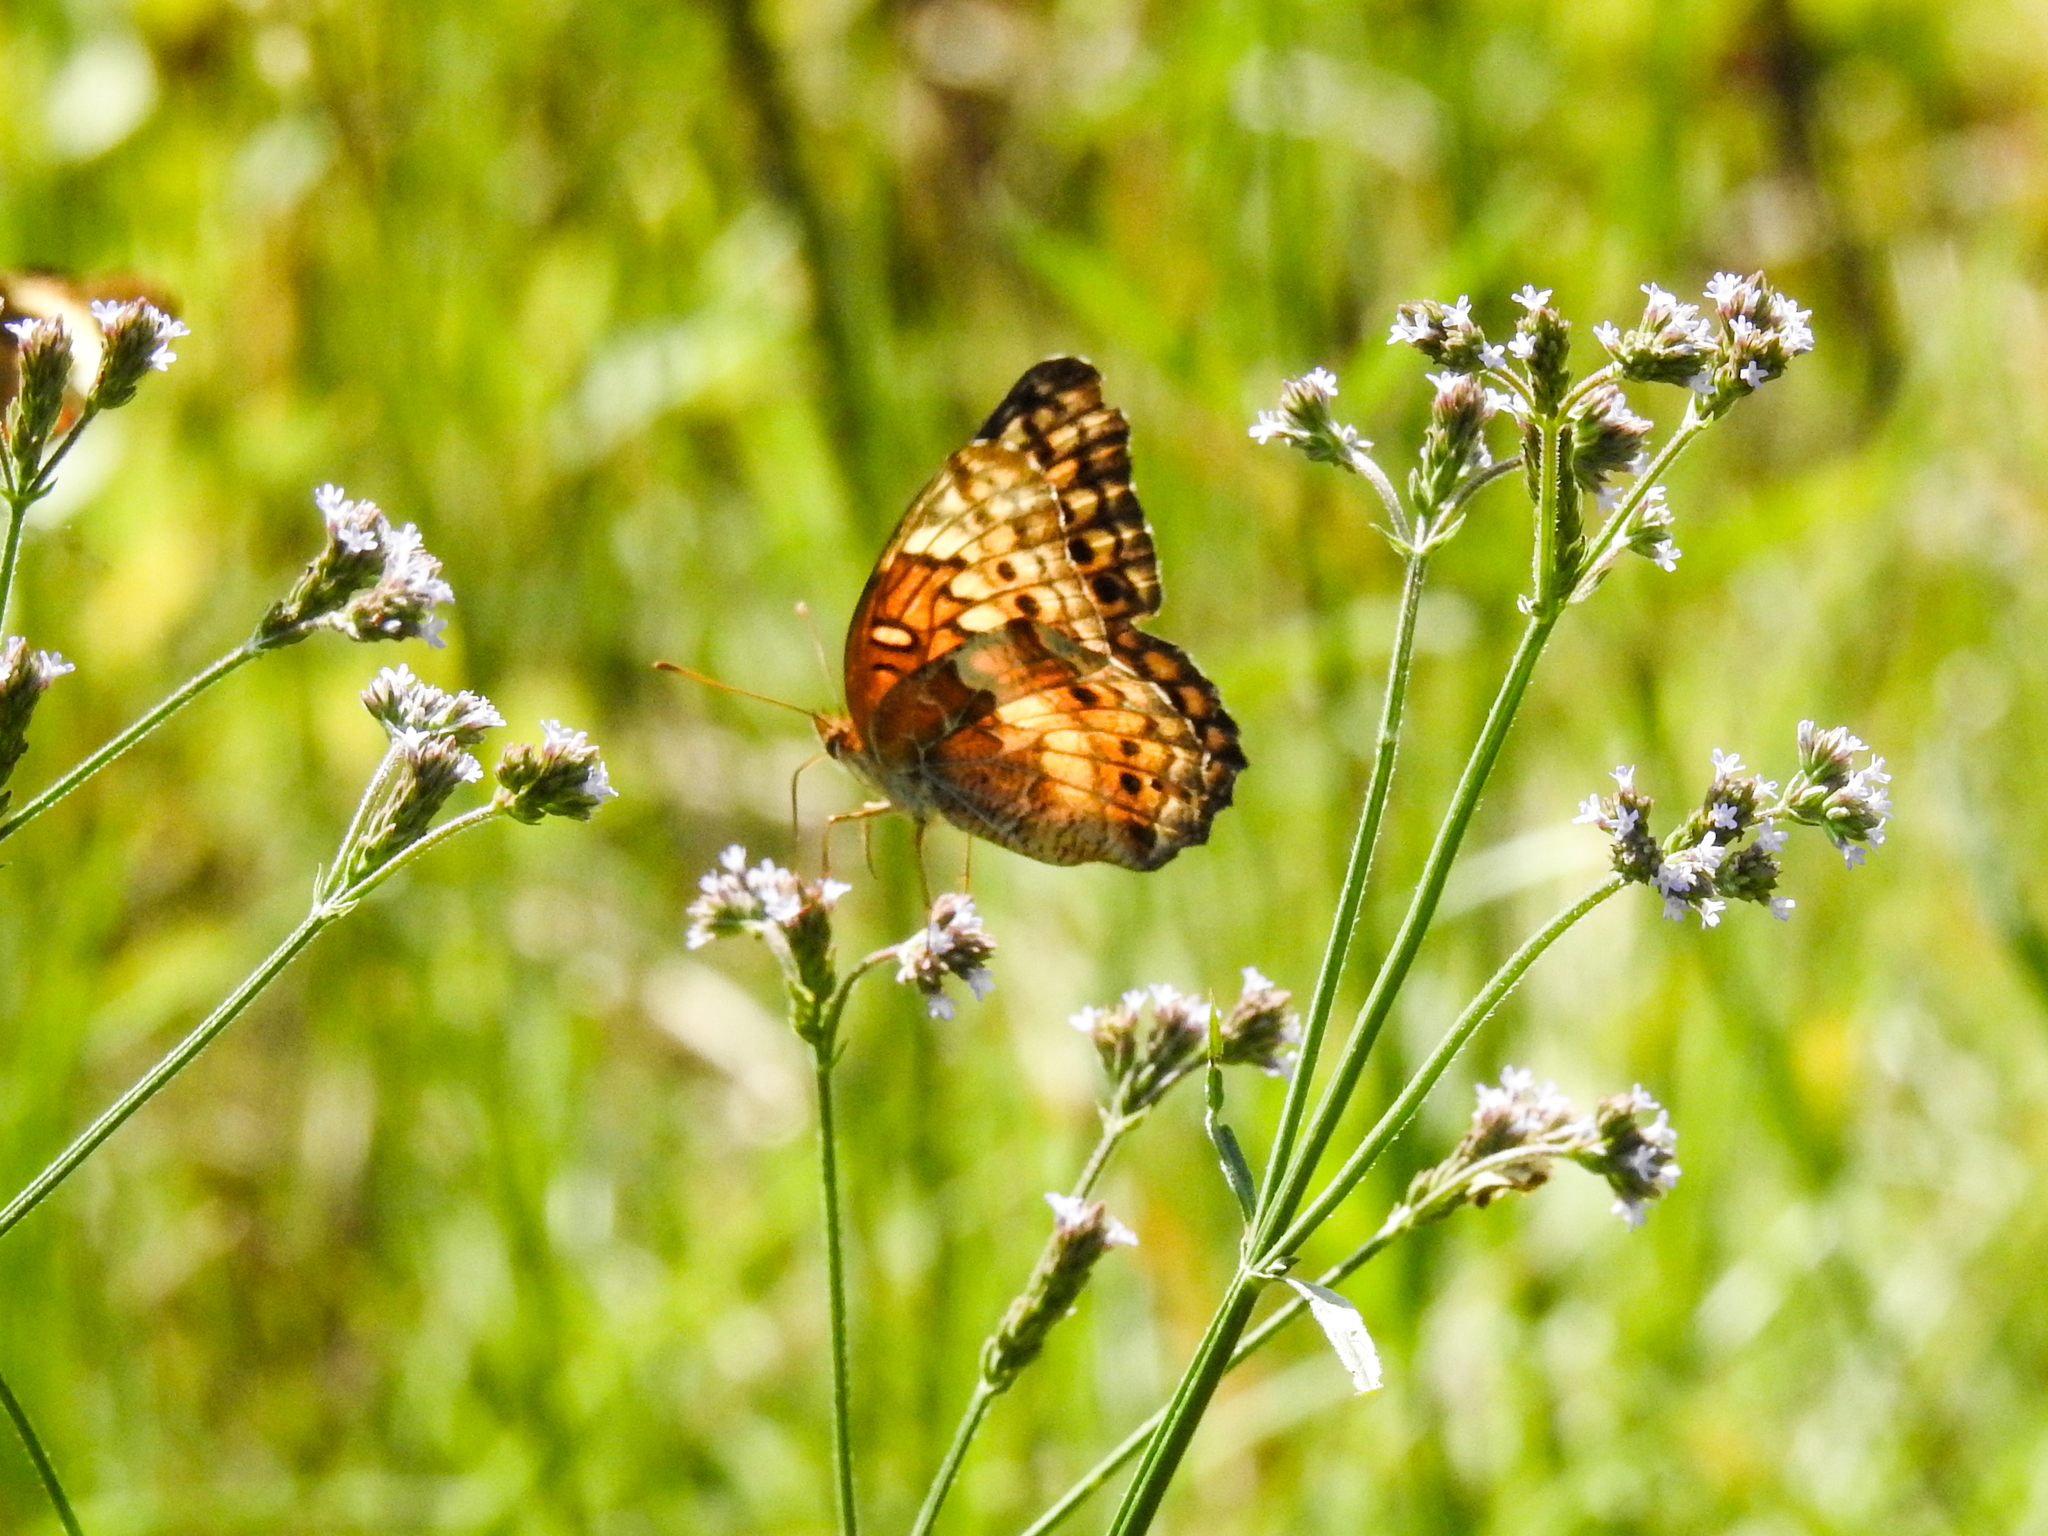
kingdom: Animalia
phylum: Arthropoda
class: Insecta
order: Lepidoptera
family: Nymphalidae
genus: Euptoieta
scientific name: Euptoieta claudia
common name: Variegated fritillary
